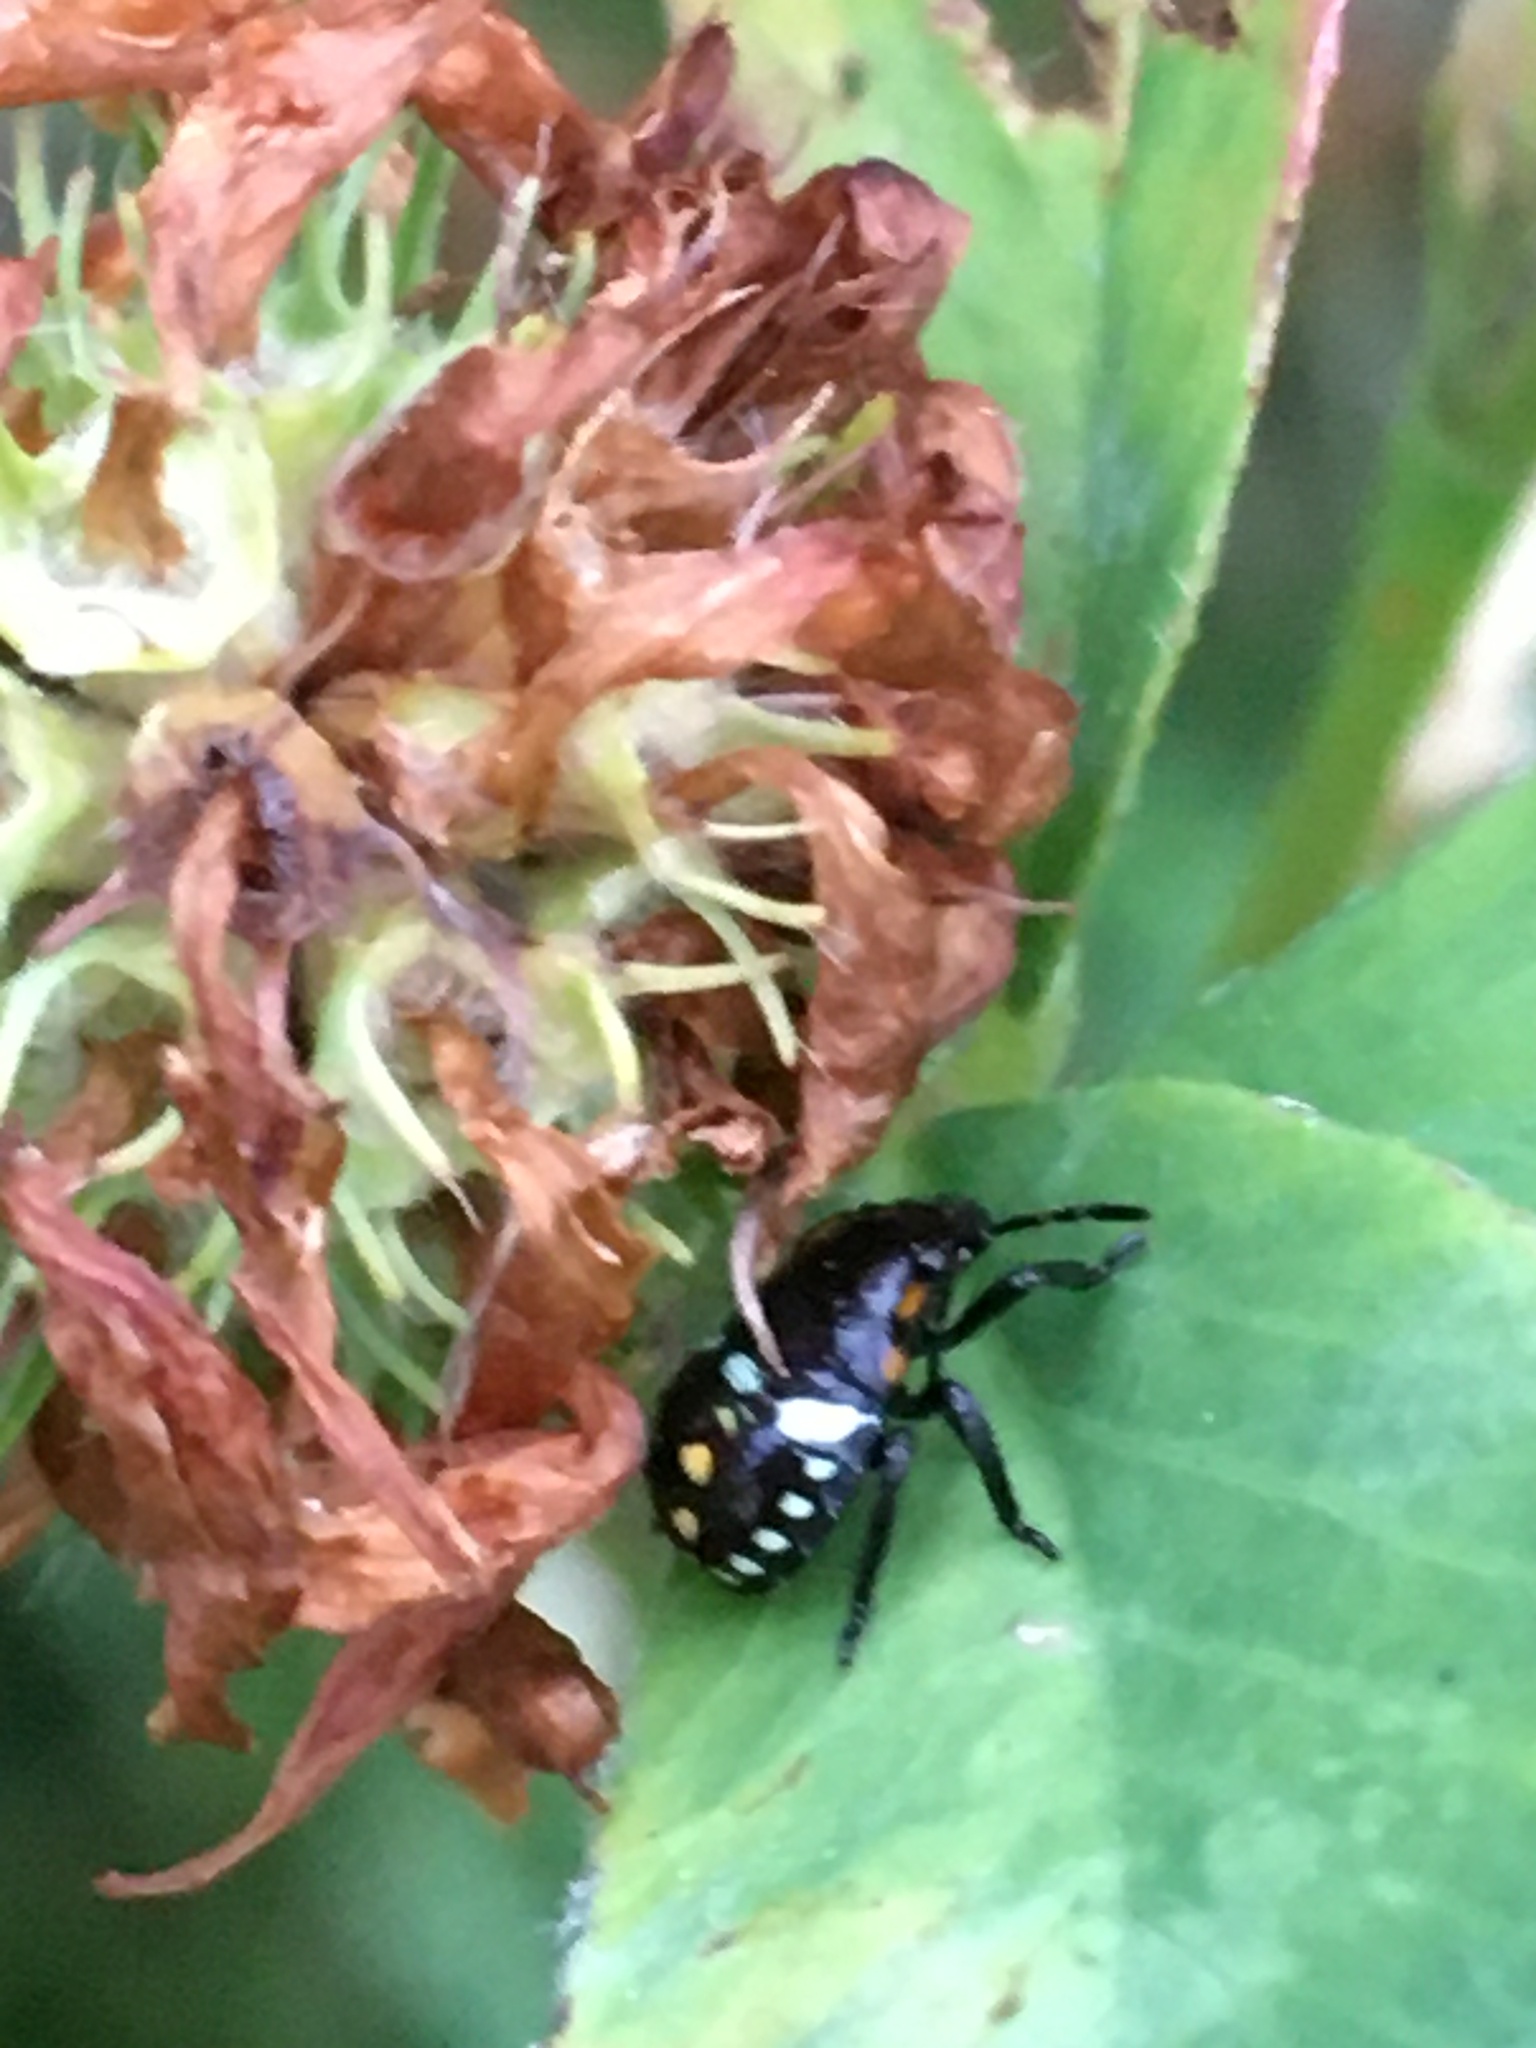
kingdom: Animalia
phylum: Arthropoda
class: Insecta
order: Hemiptera
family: Pentatomidae
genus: Nezara
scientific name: Nezara viridula
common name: Southern green stink bug
